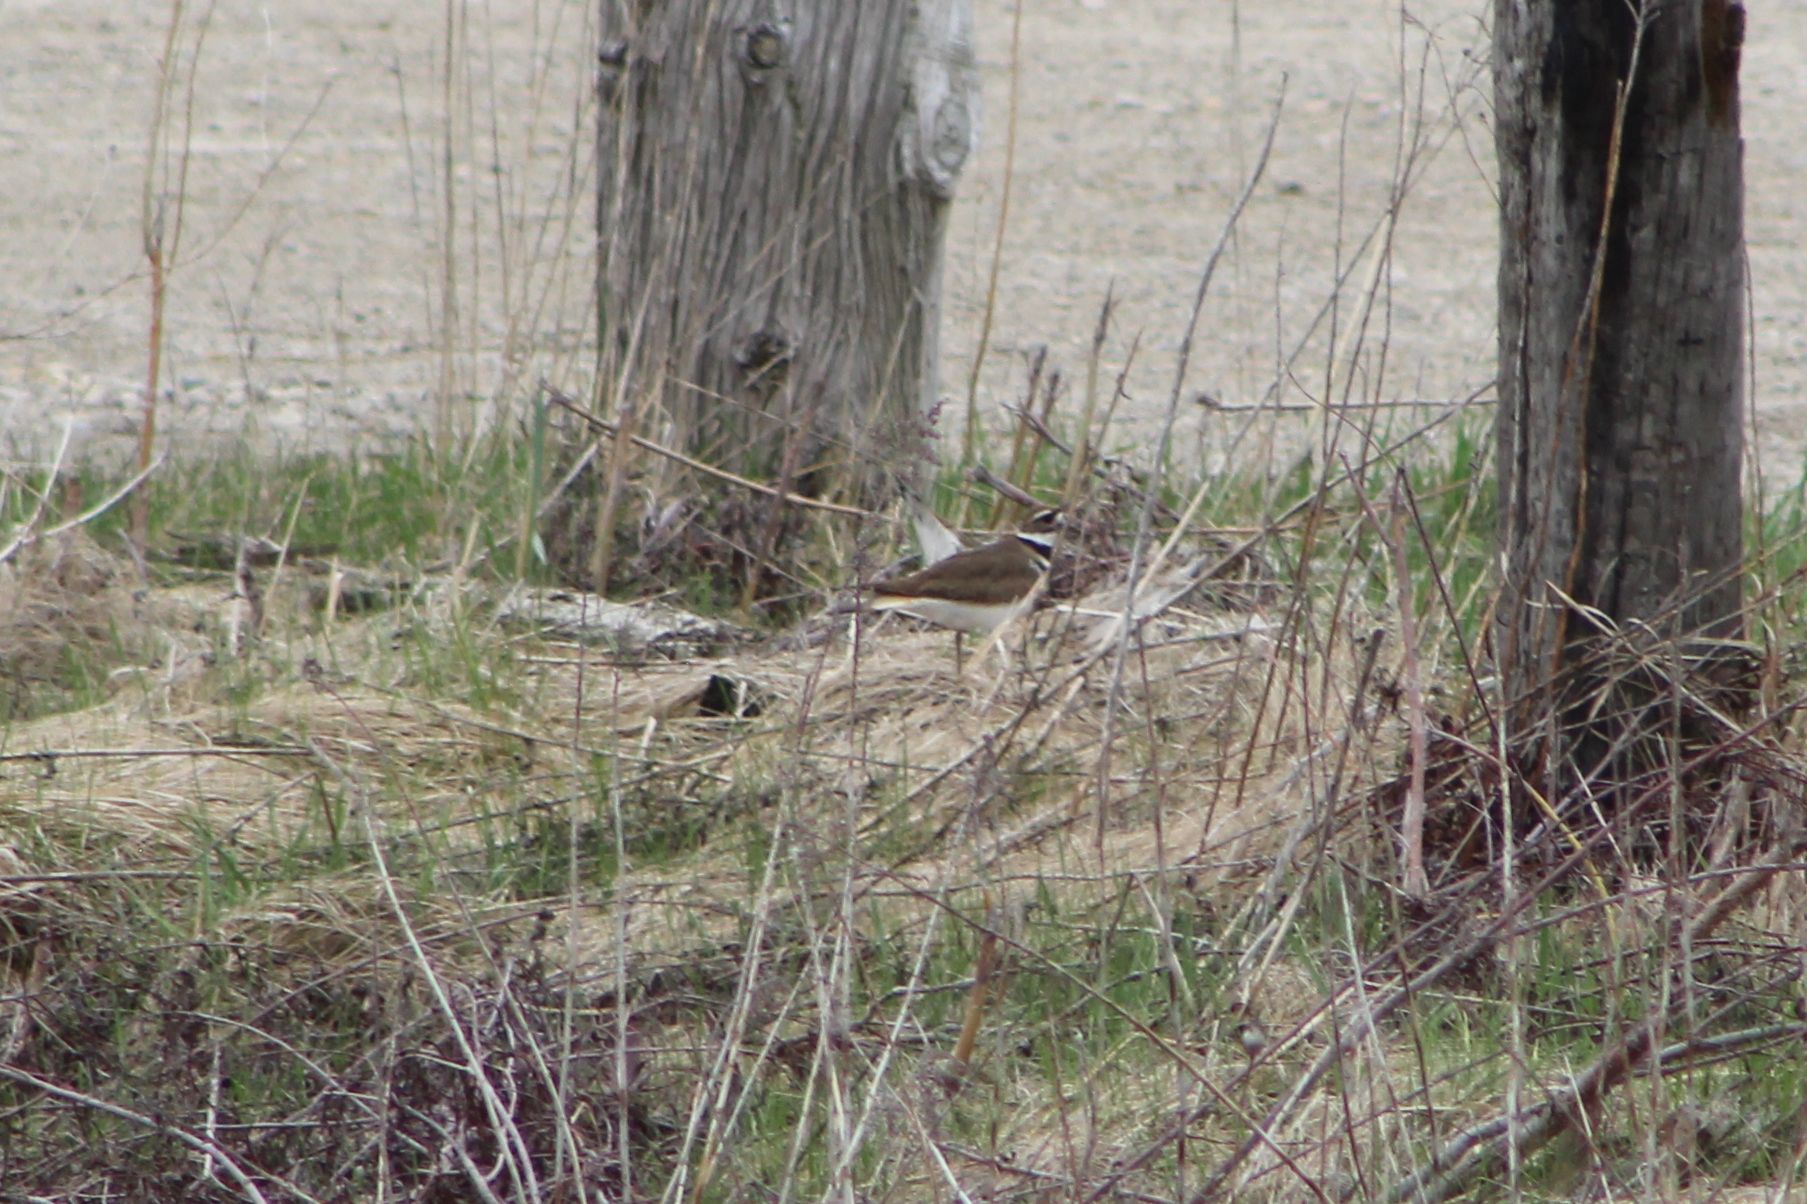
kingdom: Animalia
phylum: Chordata
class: Aves
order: Charadriiformes
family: Charadriidae
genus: Charadrius
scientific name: Charadrius vociferus
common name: Killdeer
